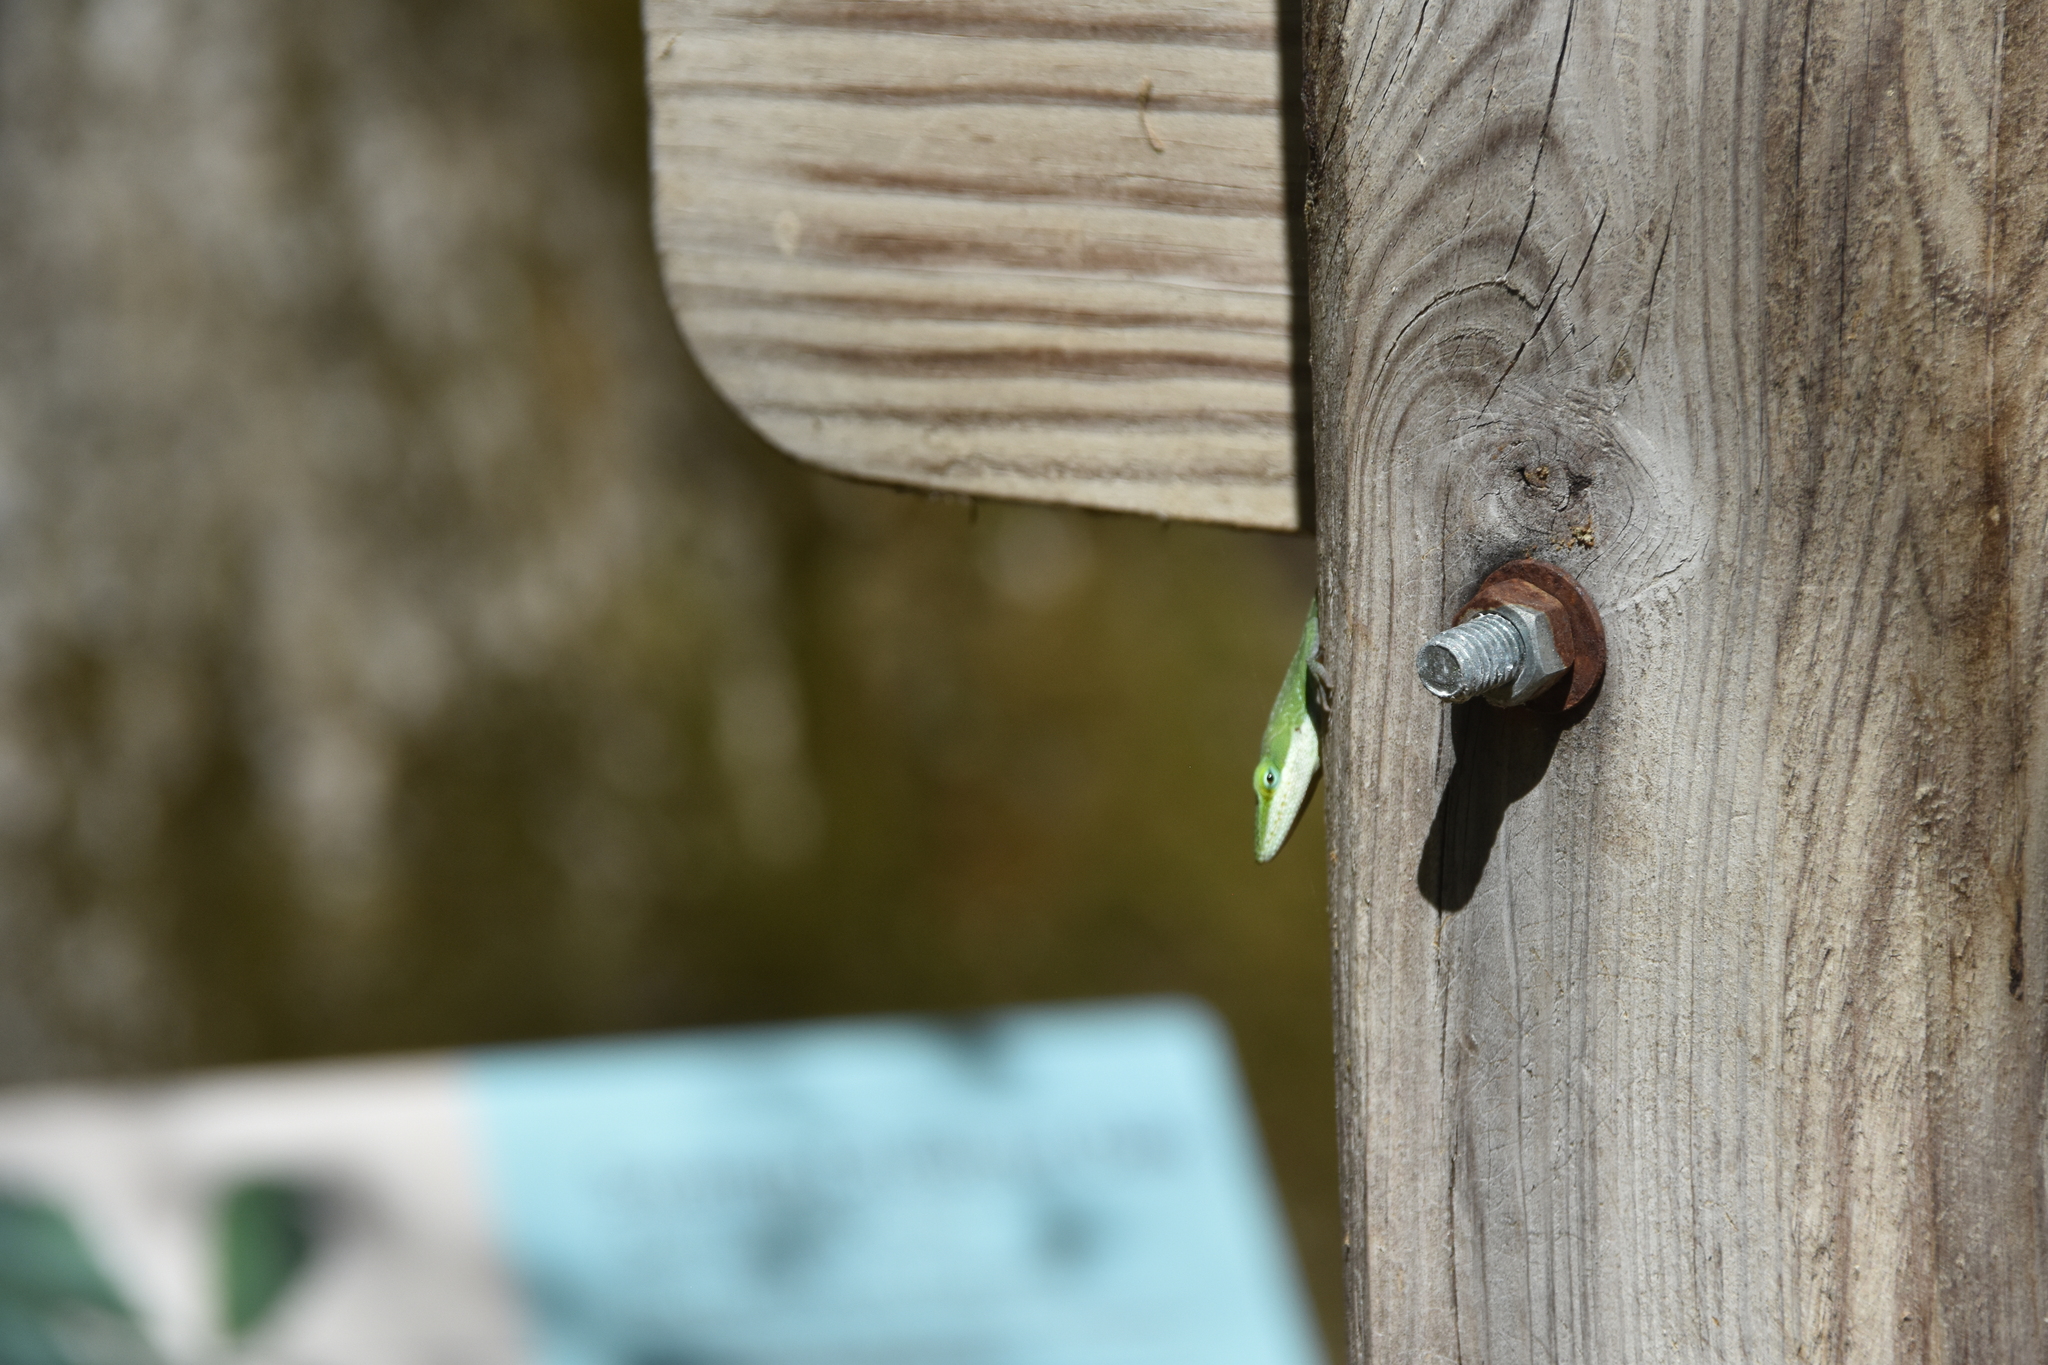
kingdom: Animalia
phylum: Chordata
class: Squamata
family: Dactyloidae
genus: Anolis
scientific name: Anolis carolinensis
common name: Green anole
